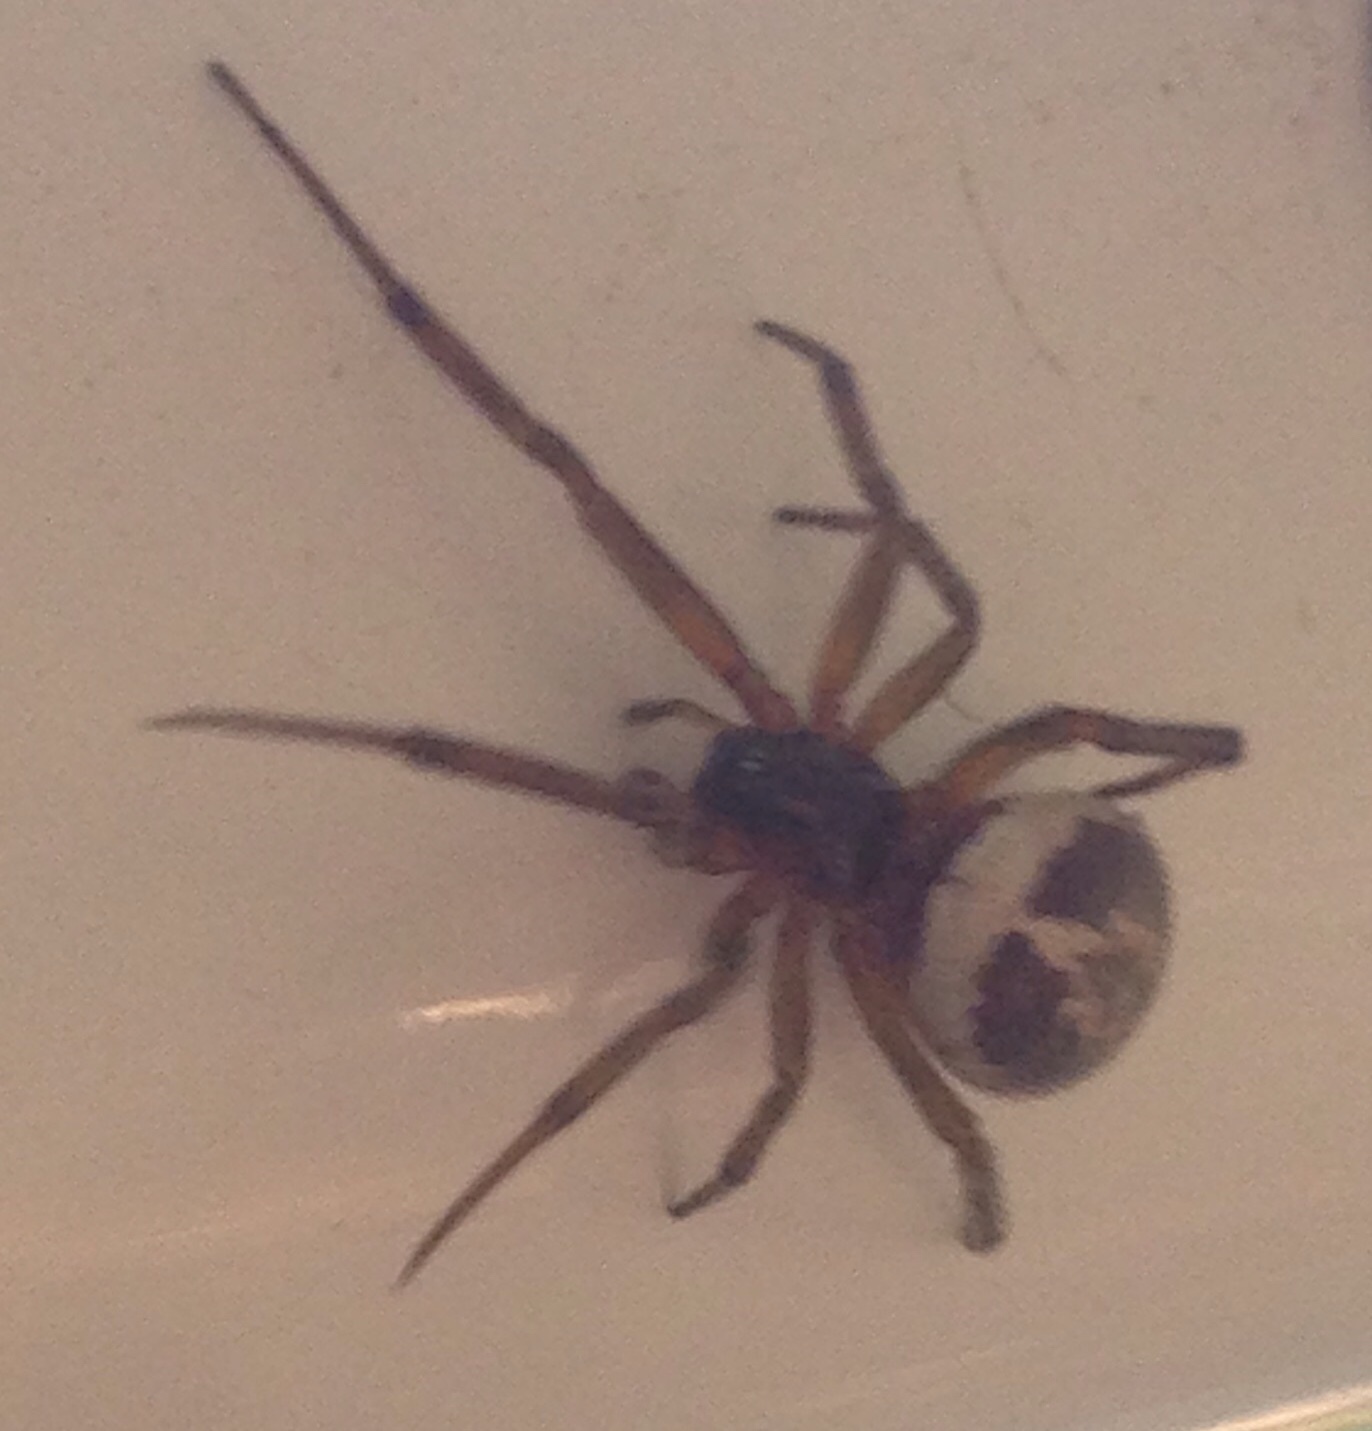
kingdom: Animalia
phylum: Arthropoda
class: Arachnida
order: Araneae
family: Theridiidae
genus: Steatoda
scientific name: Steatoda nobilis
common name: Cobweb weaver
